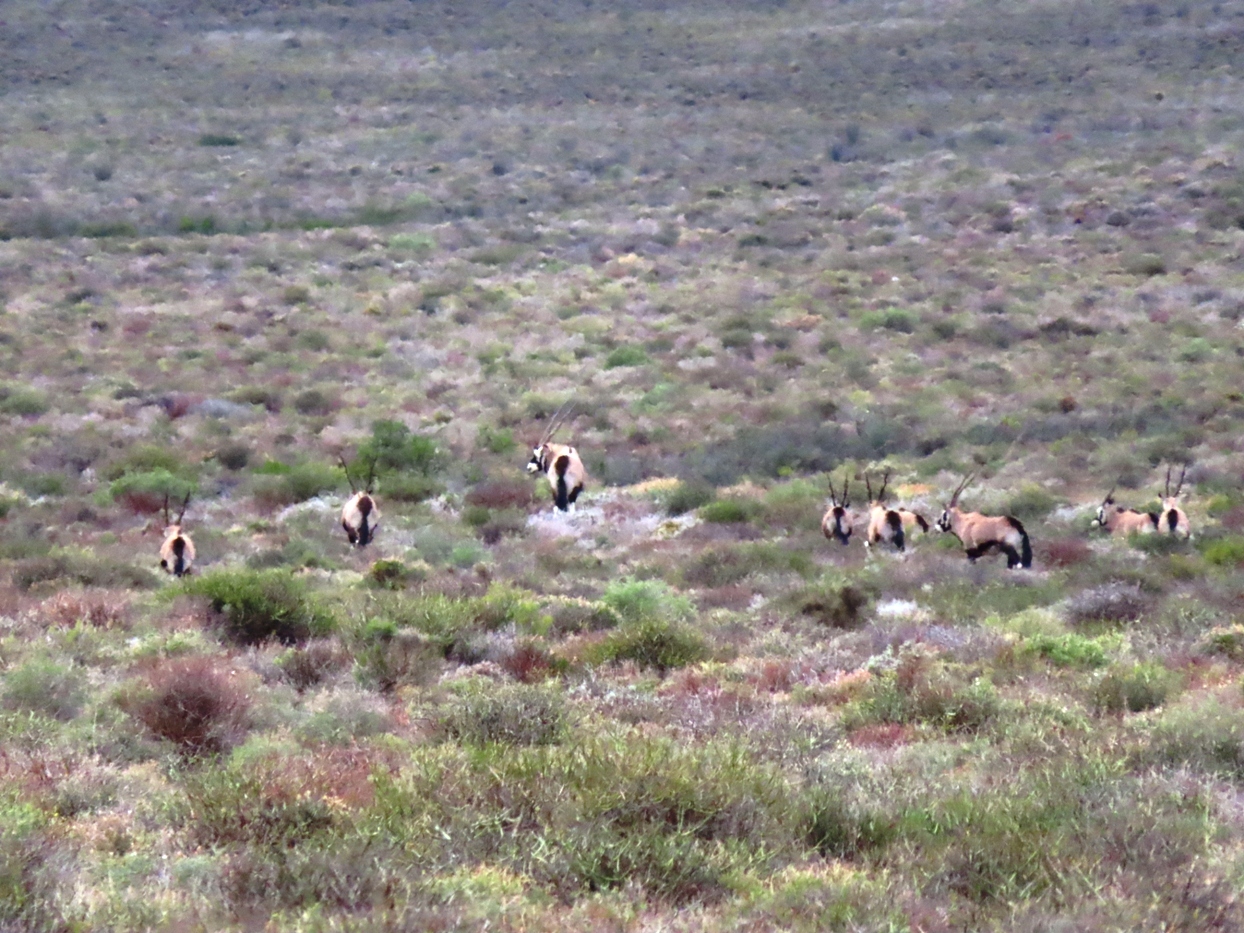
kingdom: Animalia
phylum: Chordata
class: Mammalia
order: Artiodactyla
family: Bovidae
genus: Oryx
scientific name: Oryx gazella
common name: Gemsbok
